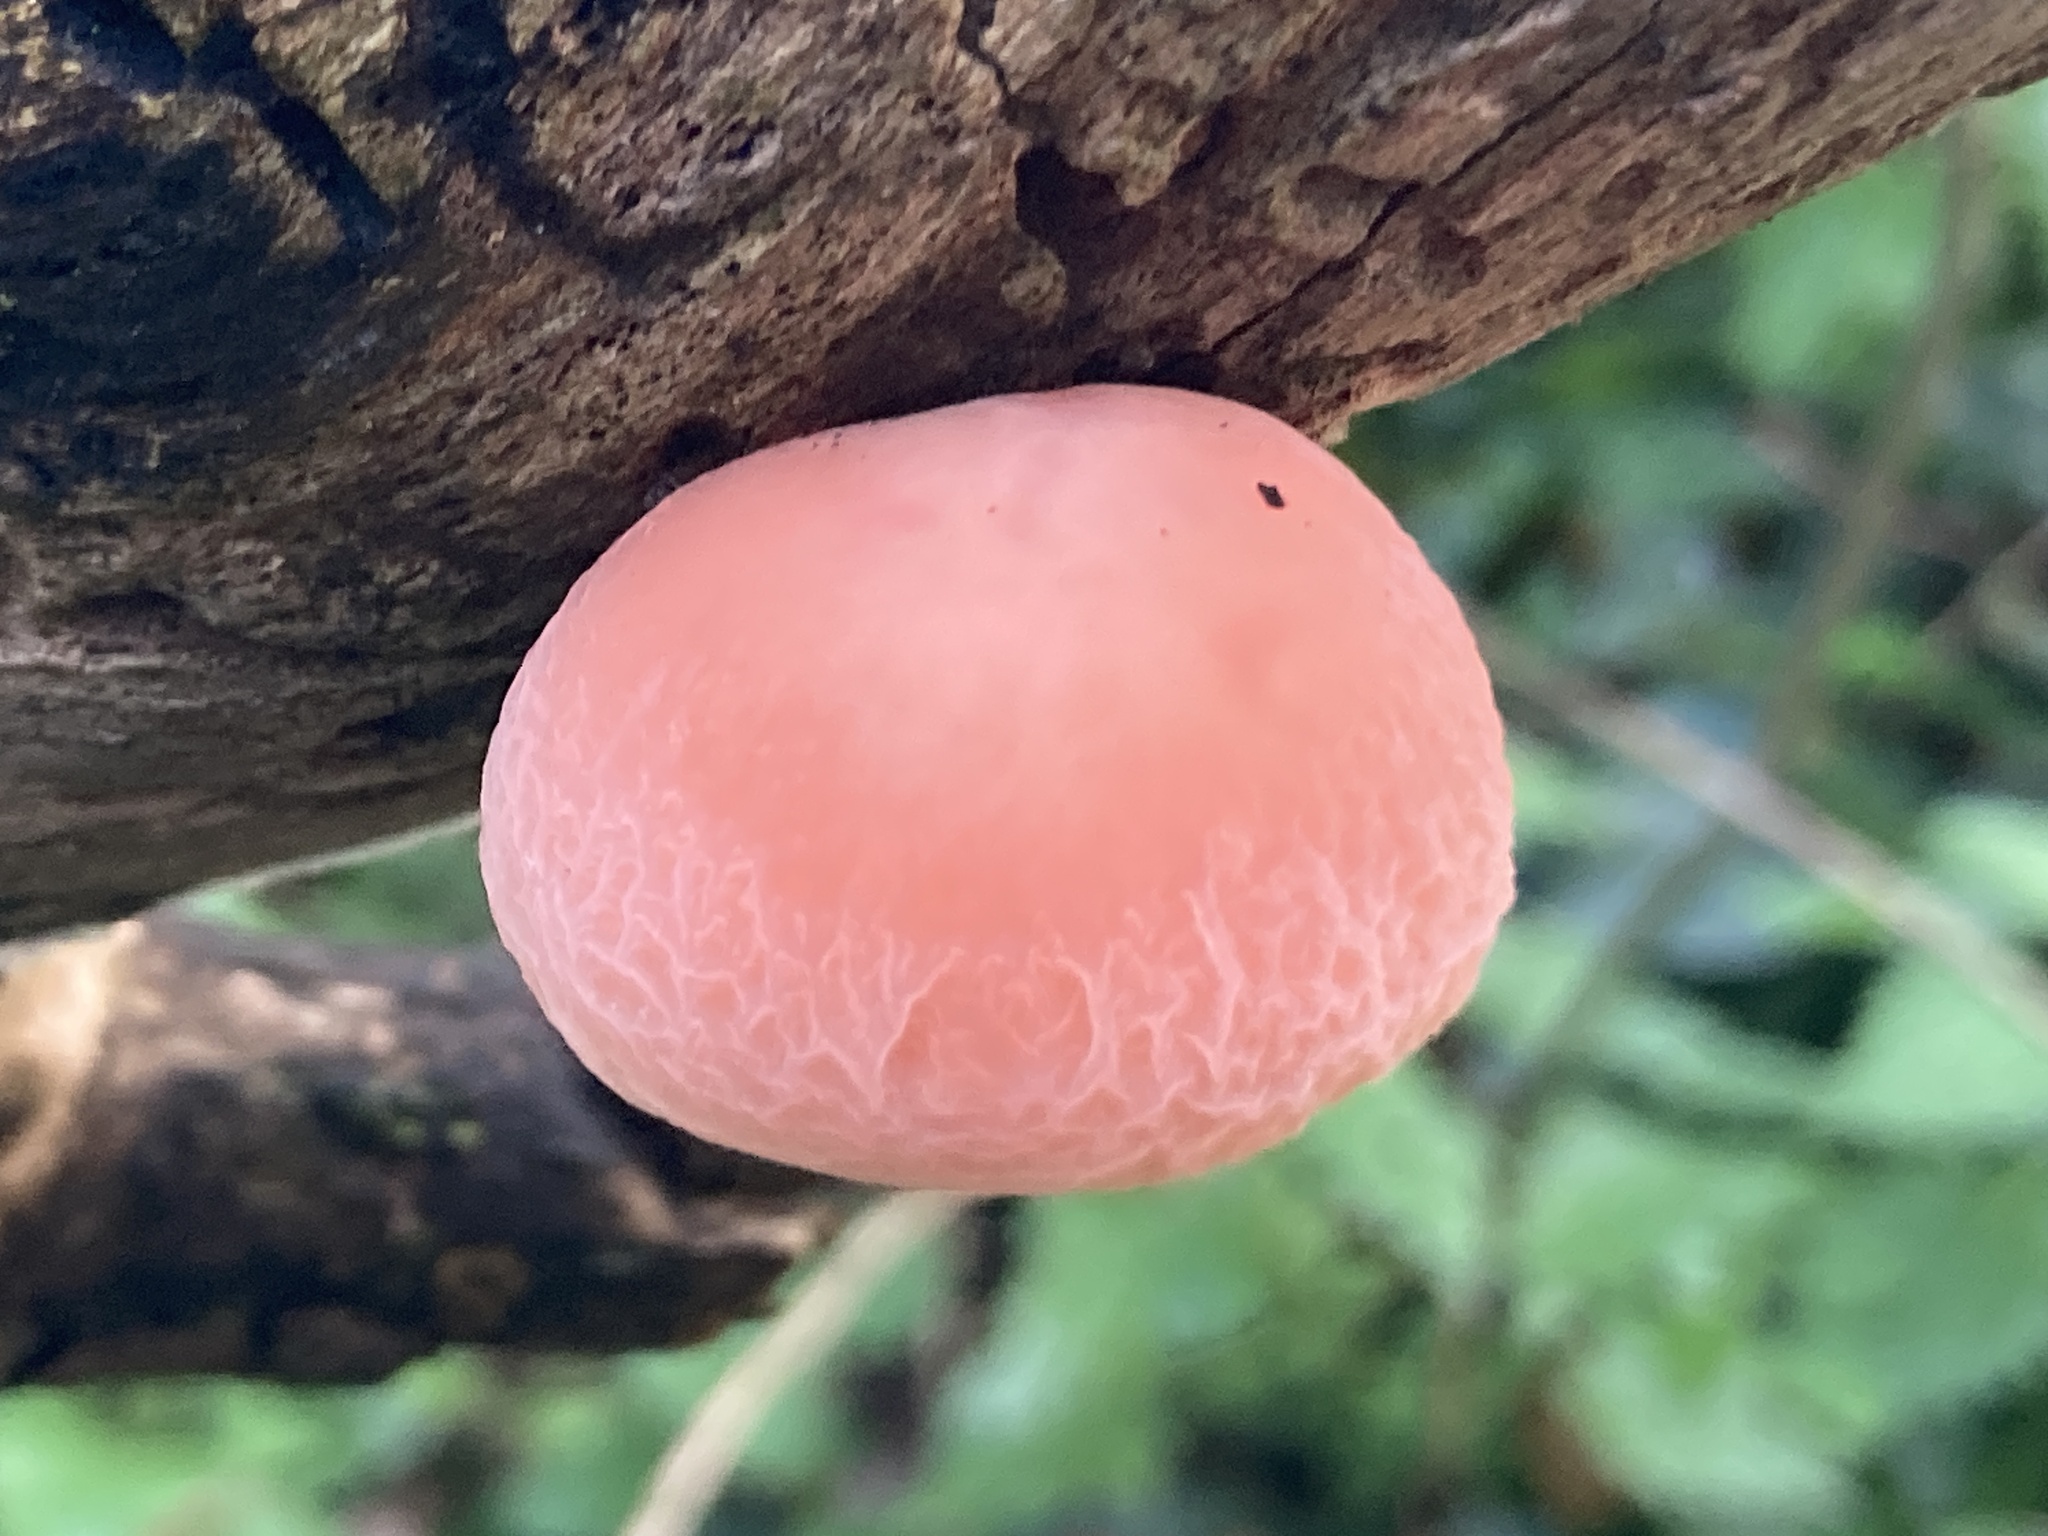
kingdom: Fungi
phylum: Basidiomycota
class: Agaricomycetes
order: Agaricales
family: Physalacriaceae
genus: Rhodotus
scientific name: Rhodotus palmatus
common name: Wrinkled peach
